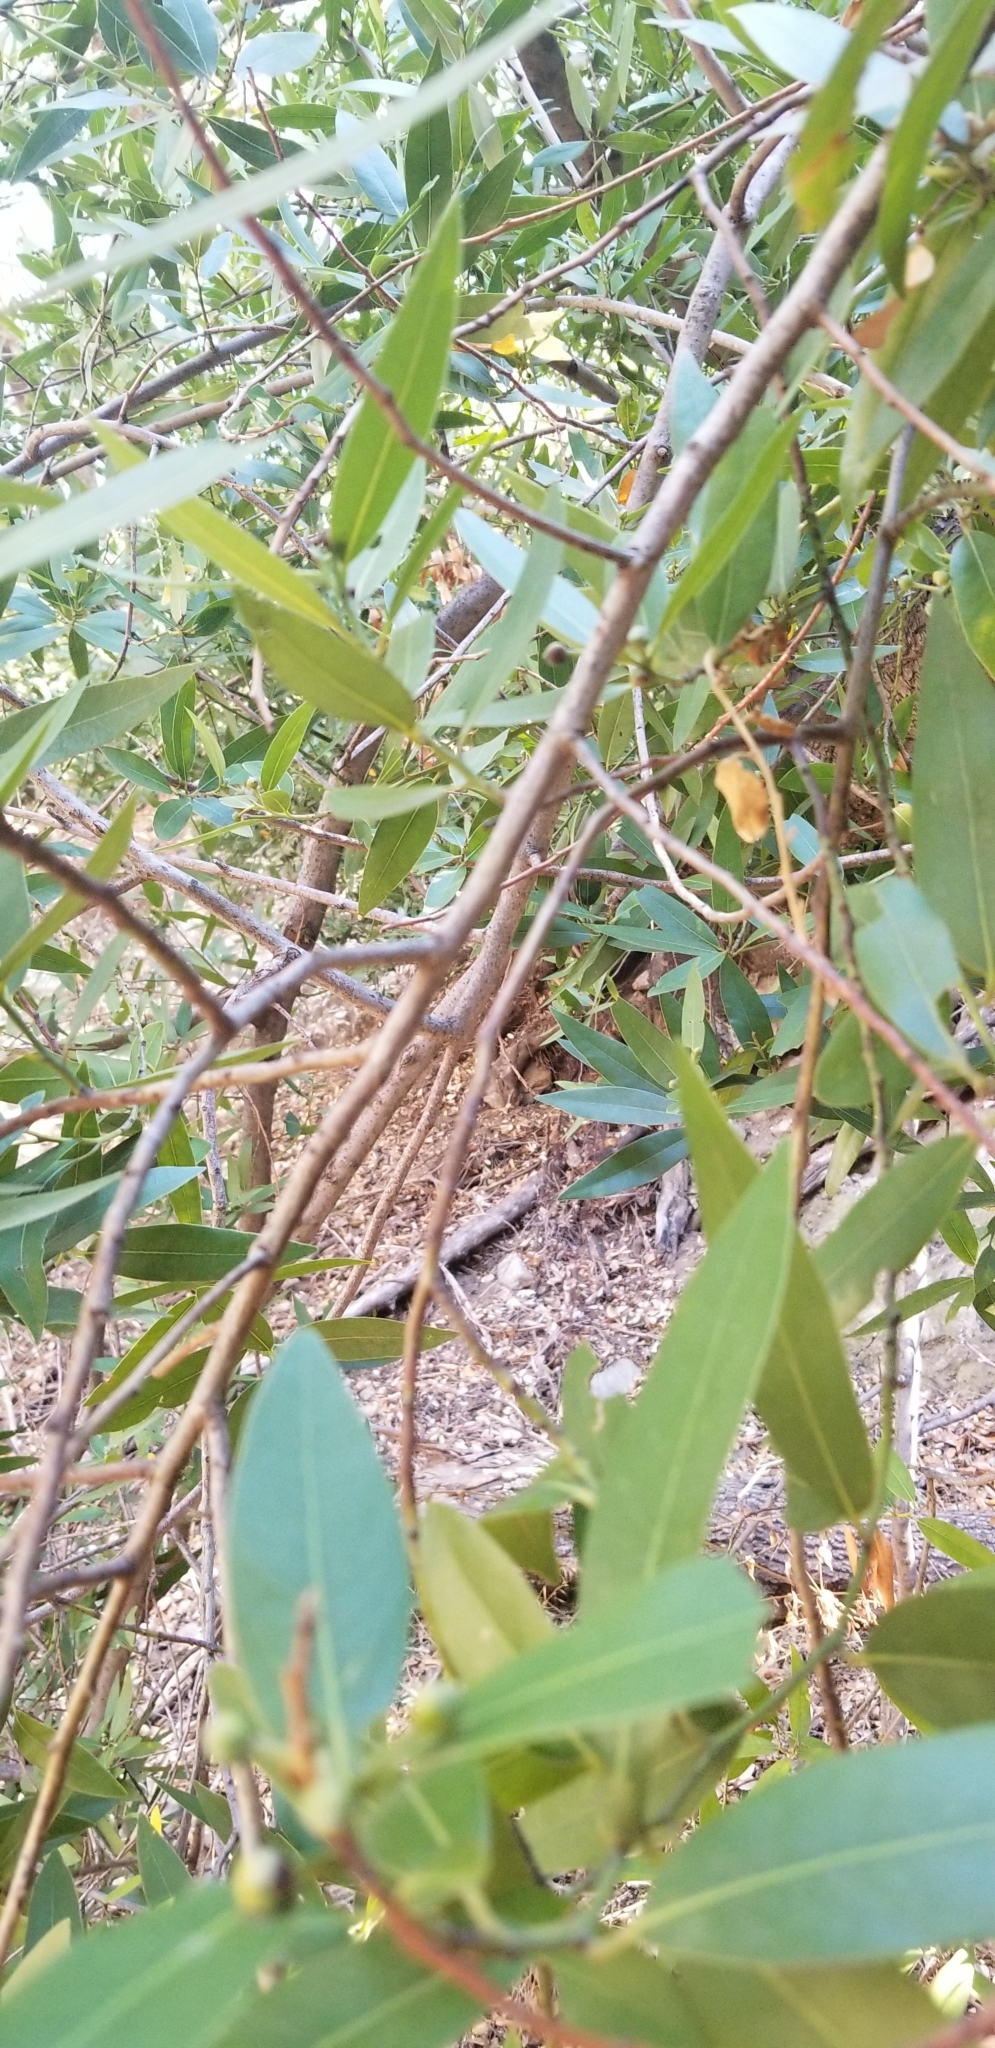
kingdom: Plantae
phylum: Tracheophyta
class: Magnoliopsida
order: Laurales
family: Lauraceae
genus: Umbellularia
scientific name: Umbellularia californica
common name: California bay
